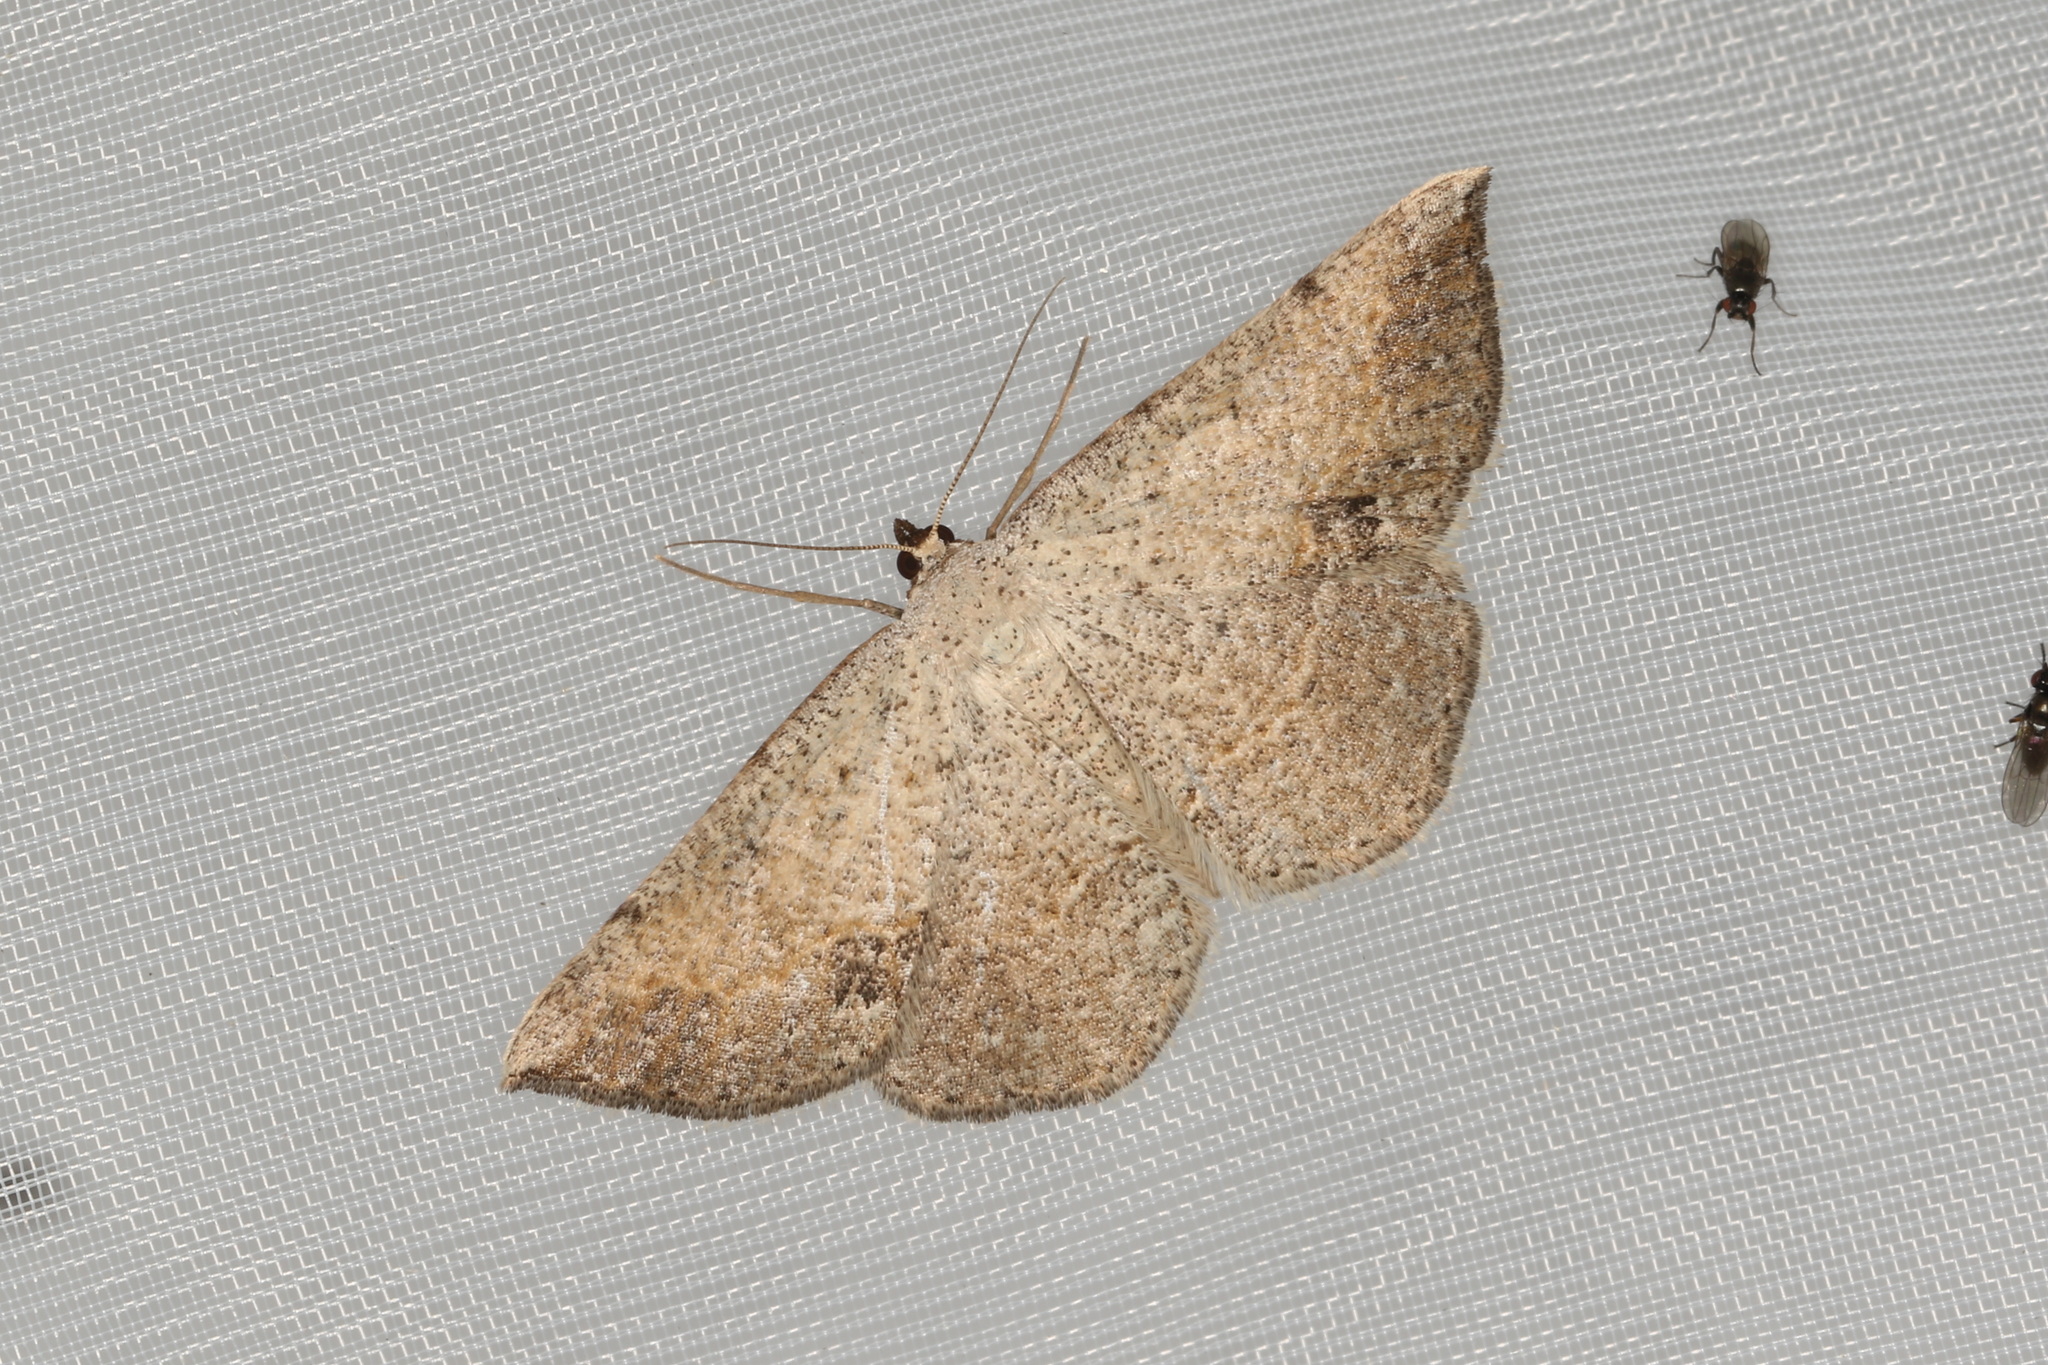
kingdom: Animalia
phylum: Arthropoda
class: Insecta
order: Lepidoptera
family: Geometridae
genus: Taxeotis
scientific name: Taxeotis perlinearia
